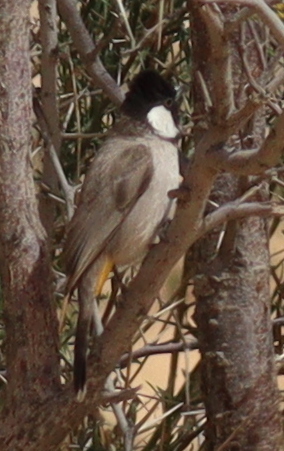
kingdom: Animalia
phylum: Chordata
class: Aves
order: Passeriformes
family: Pycnonotidae
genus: Pycnonotus
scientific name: Pycnonotus leucotis
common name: White-eared bulbul
